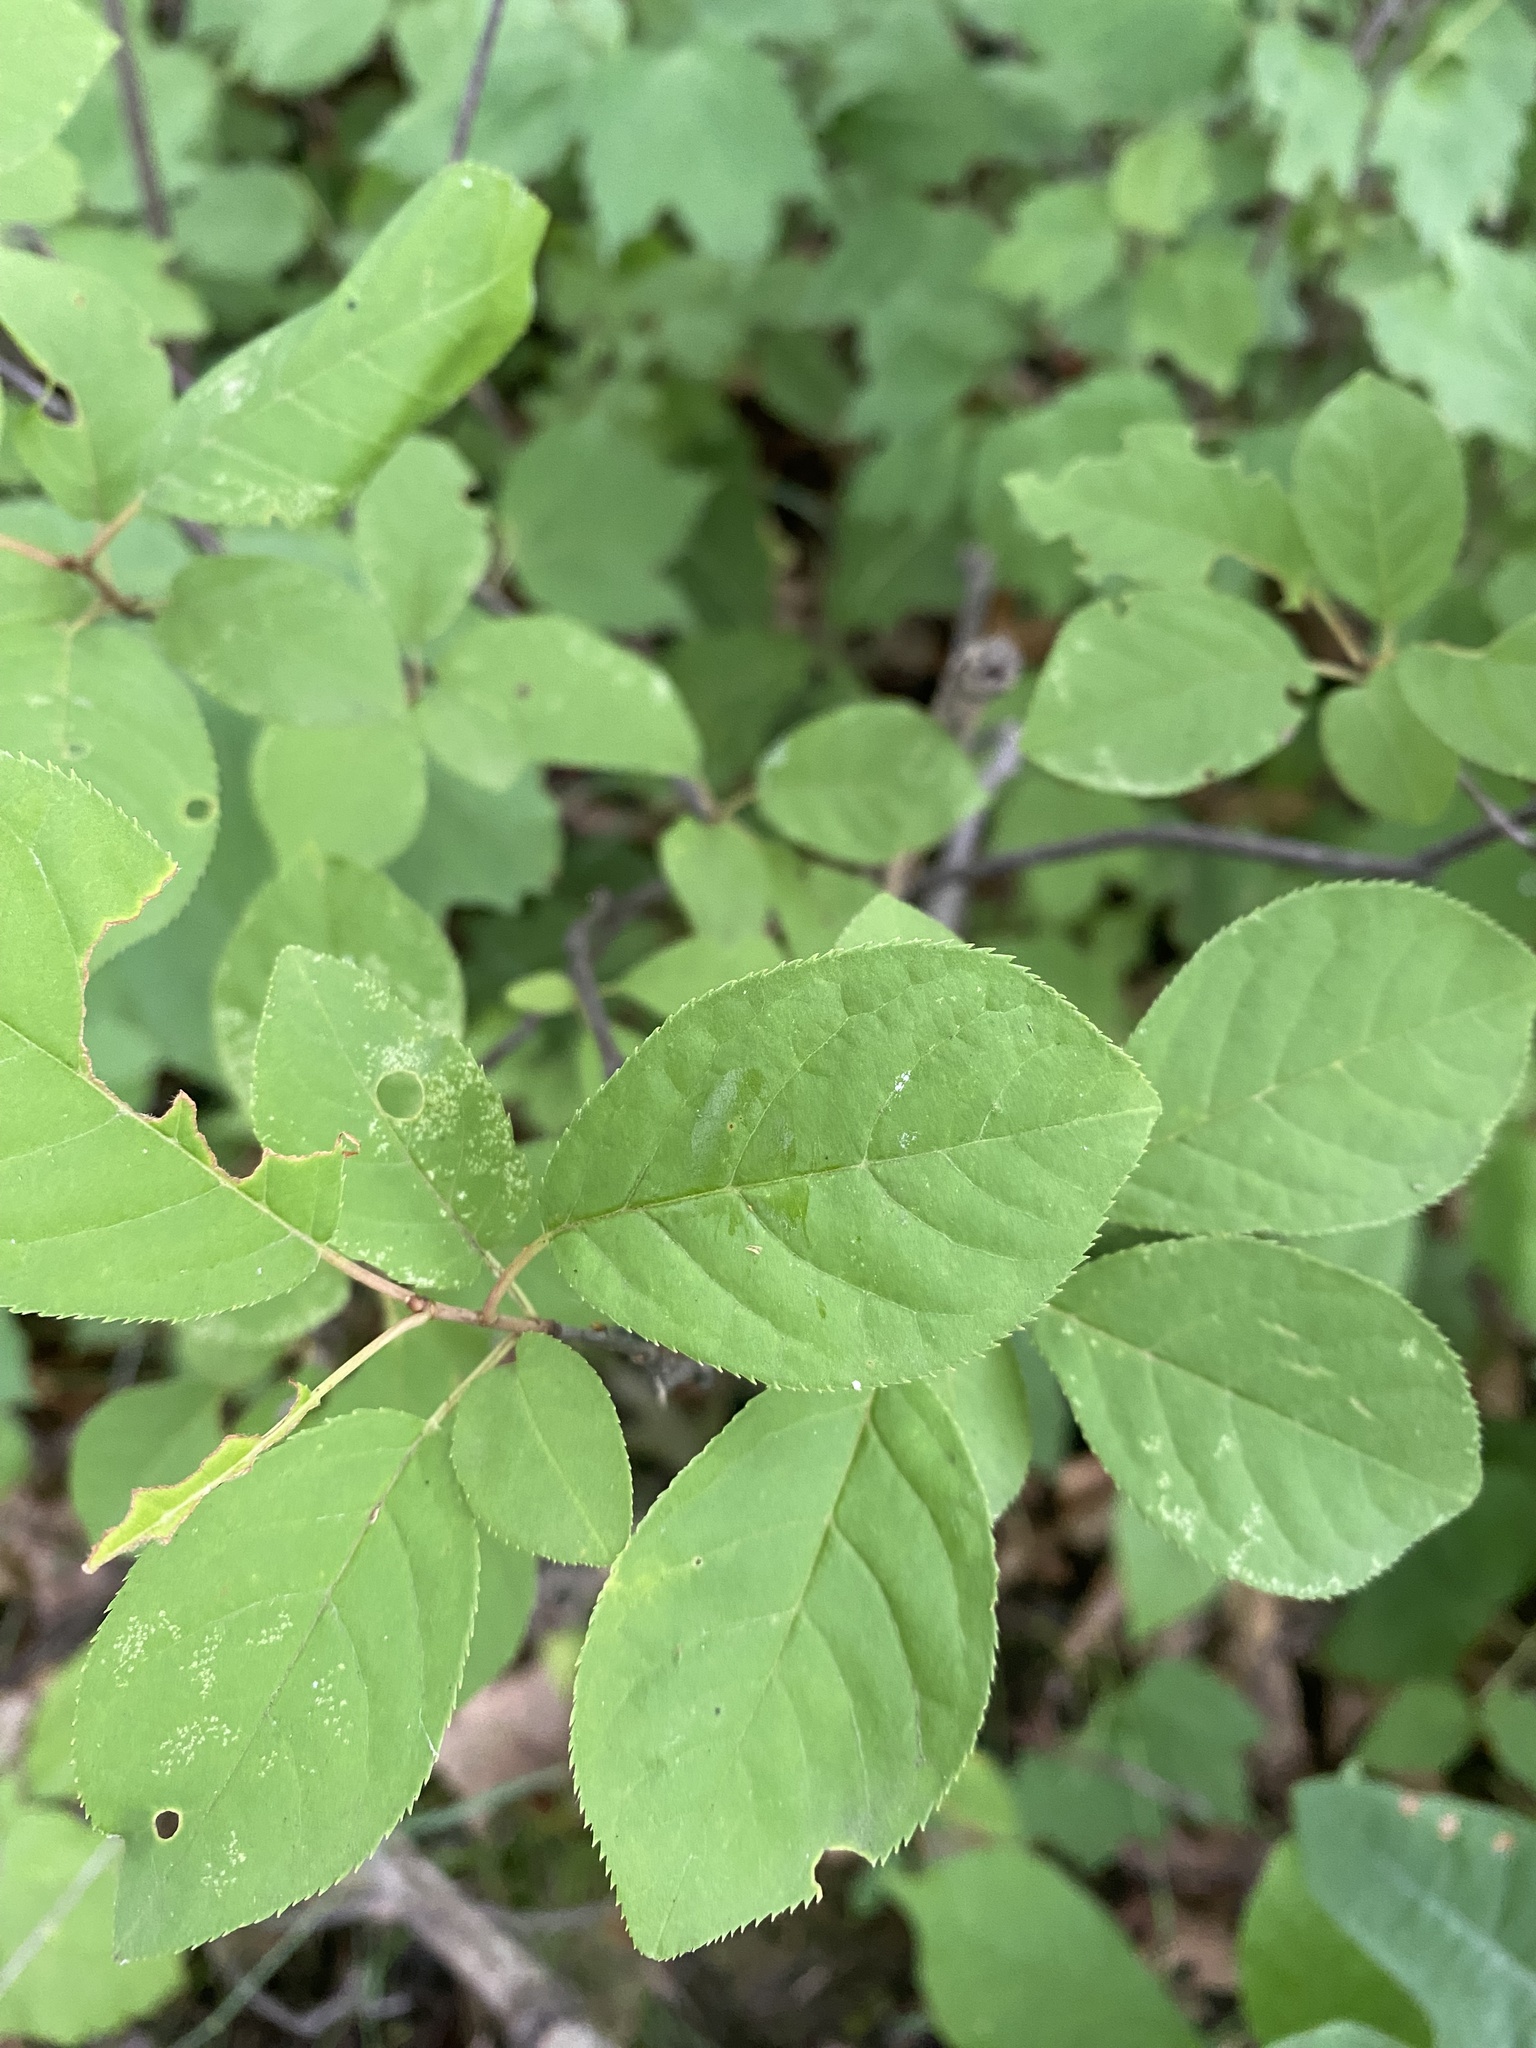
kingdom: Plantae
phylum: Tracheophyta
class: Magnoliopsida
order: Rosales
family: Rosaceae
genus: Prunus
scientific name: Prunus virginiana
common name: Chokecherry
